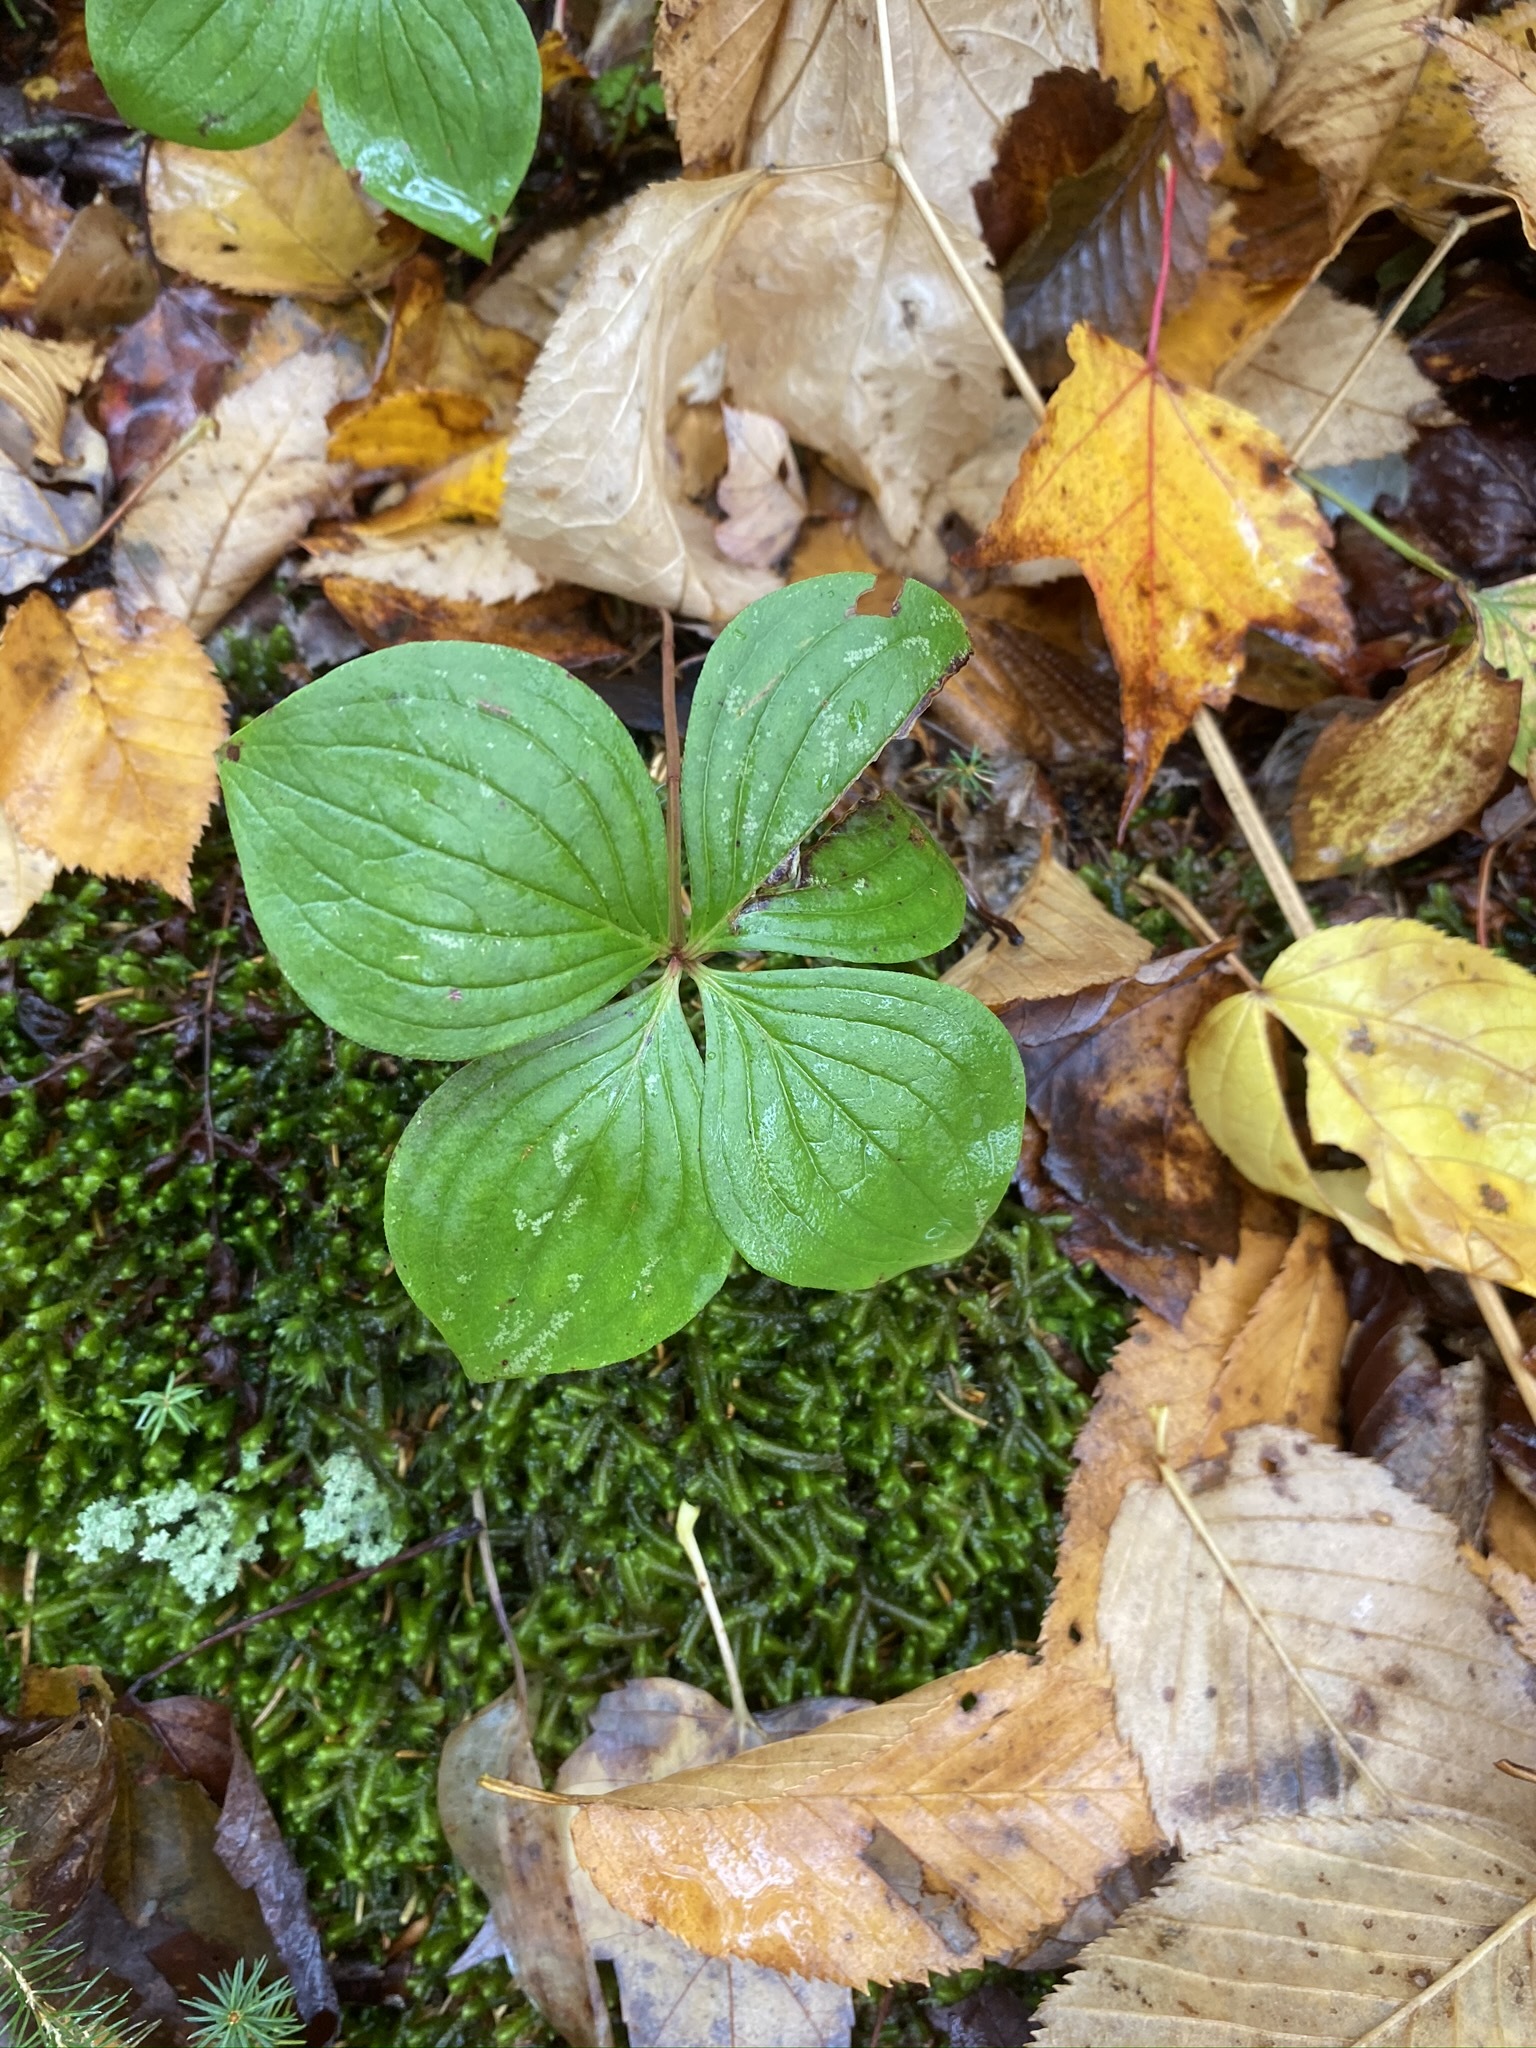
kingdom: Plantae
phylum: Tracheophyta
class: Magnoliopsida
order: Cornales
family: Cornaceae
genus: Cornus
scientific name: Cornus canadensis
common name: Creeping dogwood
